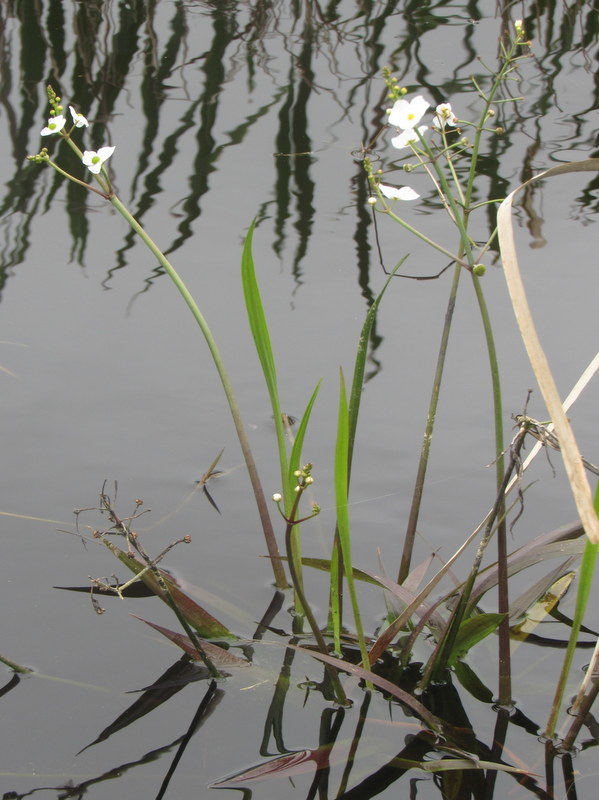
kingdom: Plantae
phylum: Tracheophyta
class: Liliopsida
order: Alismatales
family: Alismataceae
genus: Sagittaria
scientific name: Sagittaria chapmanii
